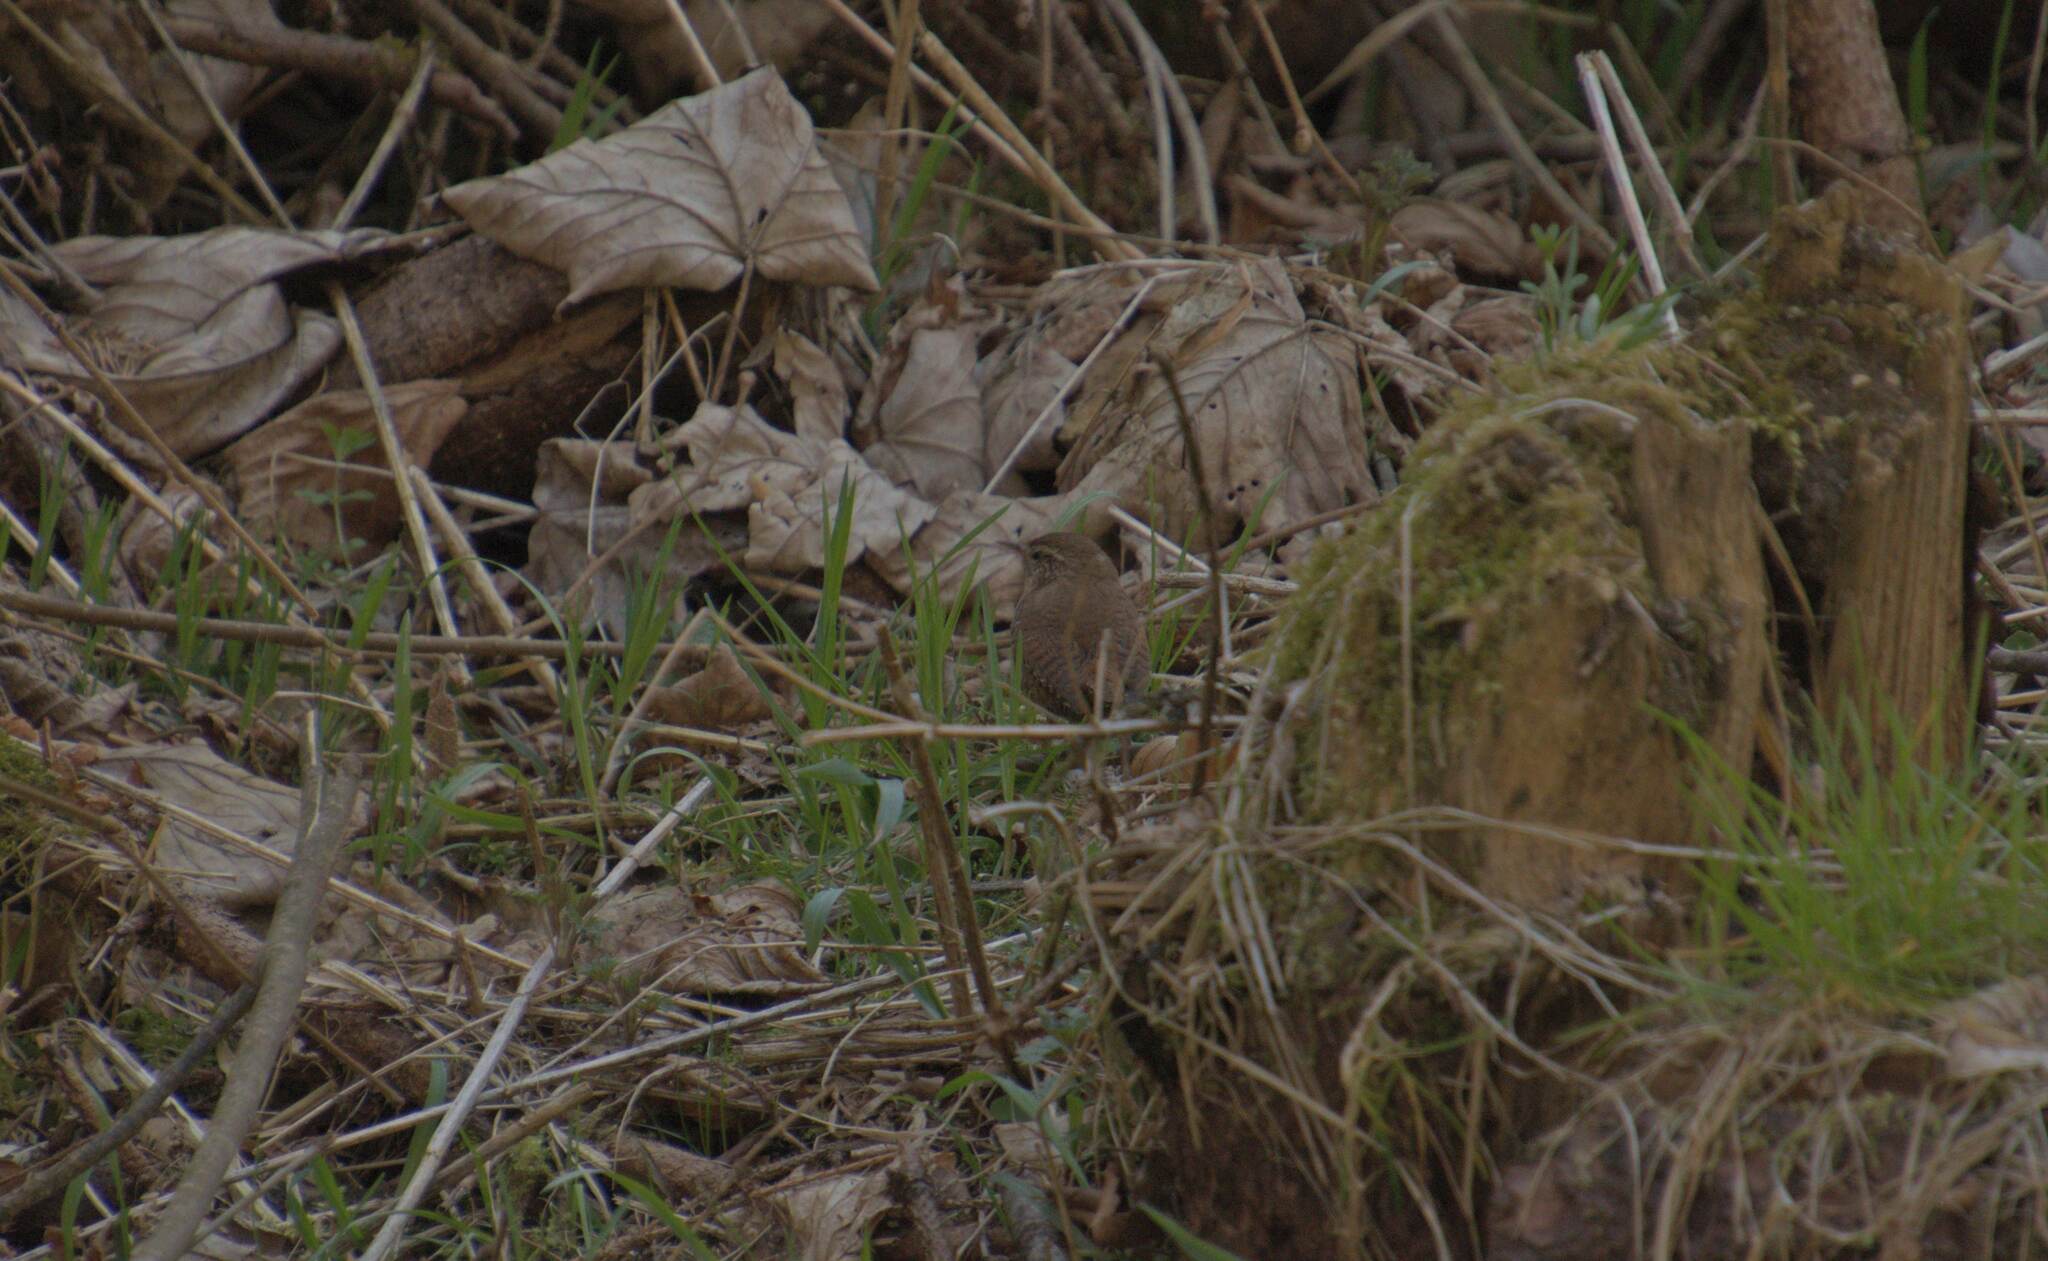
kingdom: Animalia
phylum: Chordata
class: Aves
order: Passeriformes
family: Troglodytidae
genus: Troglodytes
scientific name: Troglodytes troglodytes
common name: Eurasian wren
